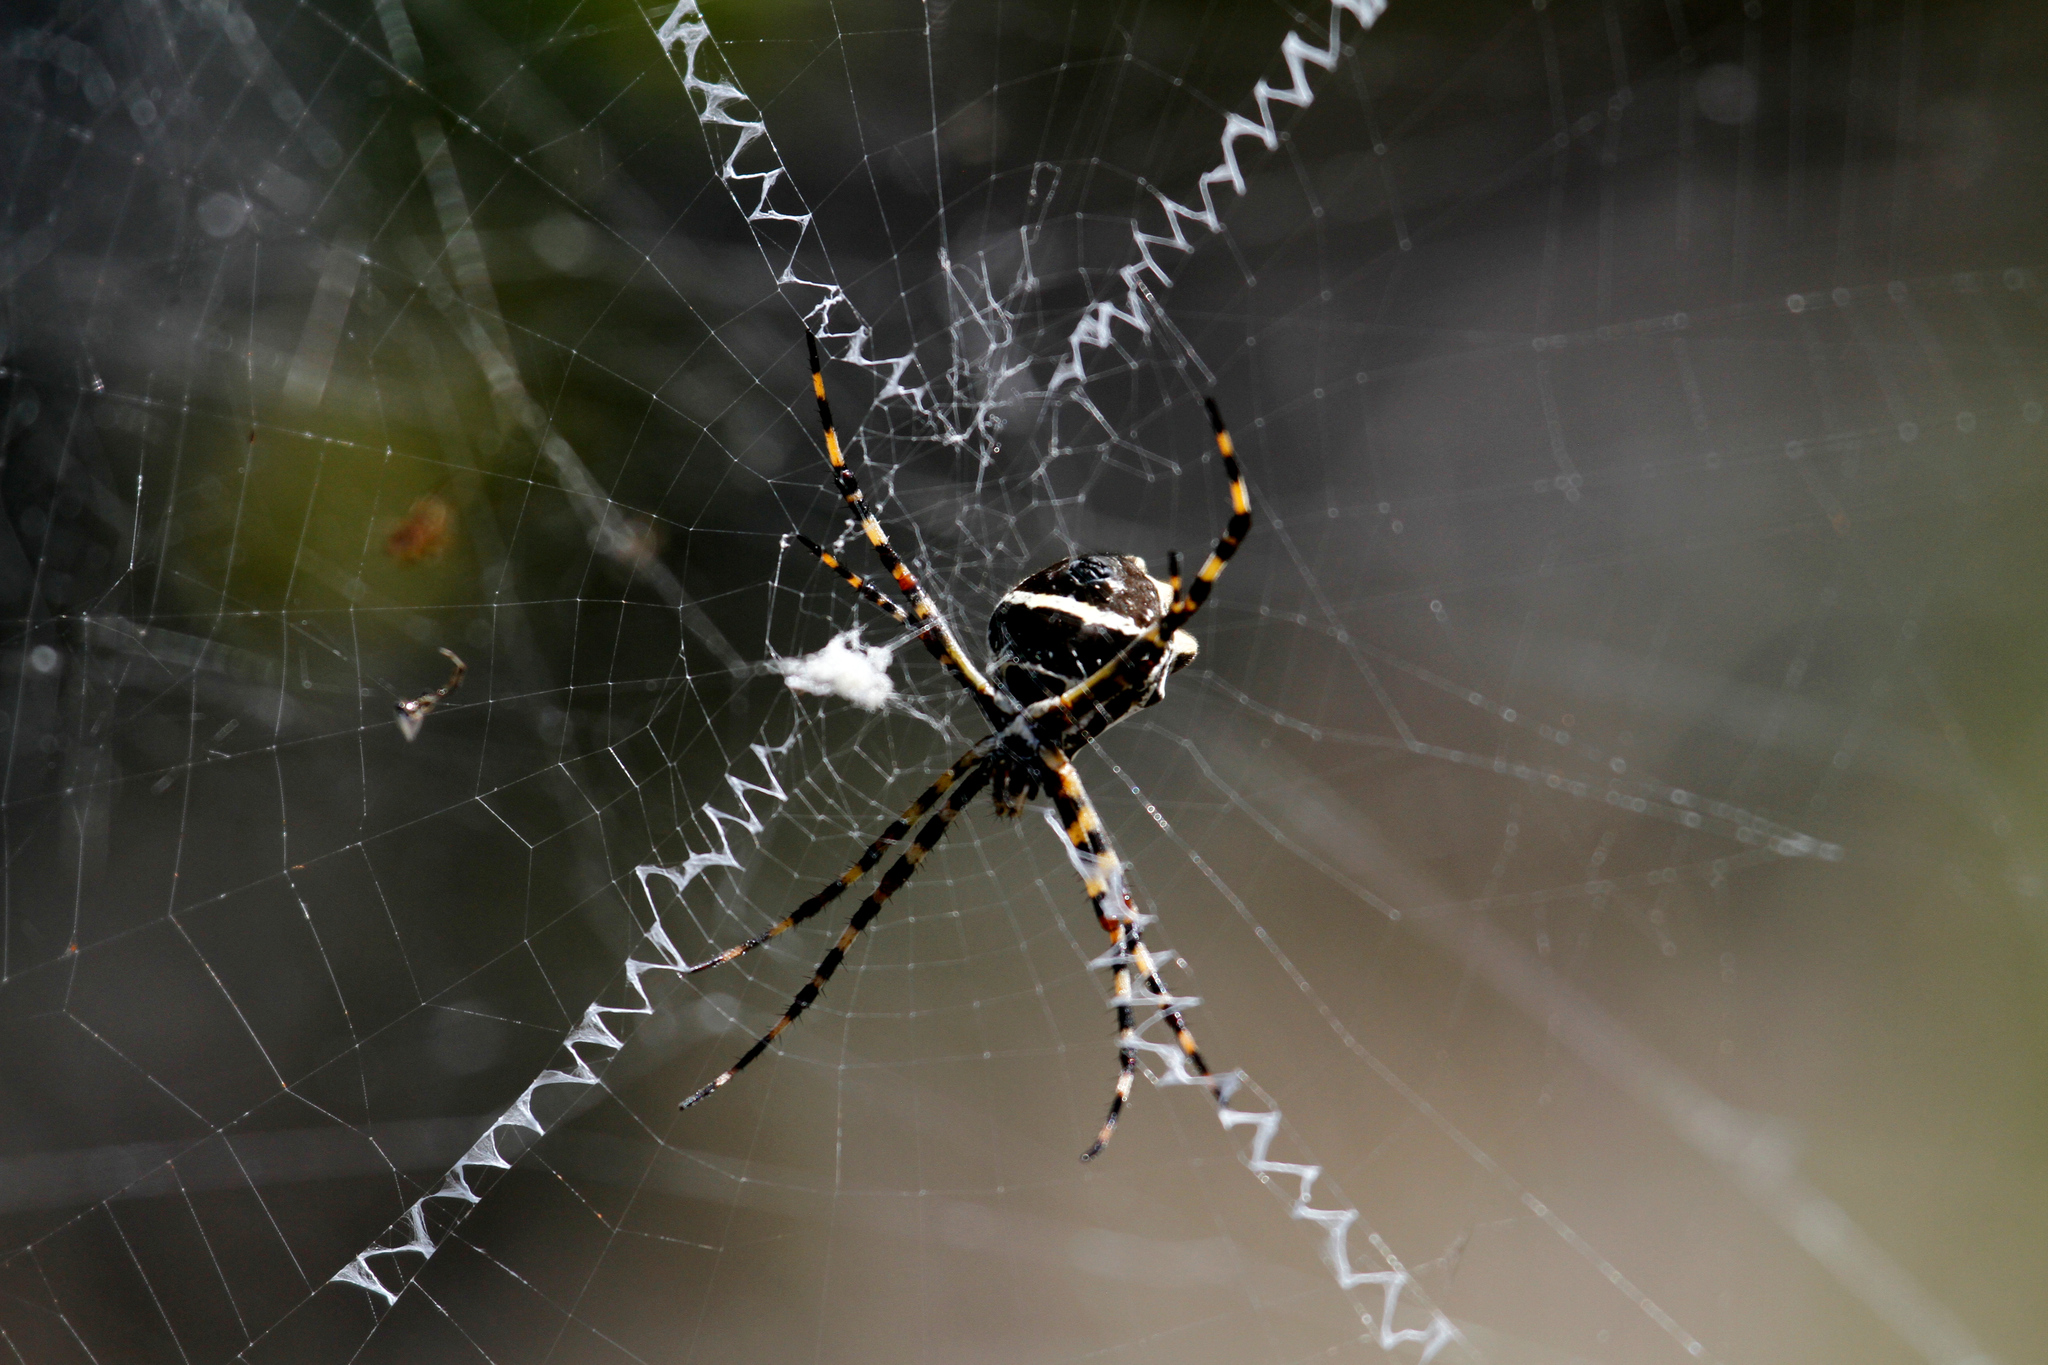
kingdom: Animalia
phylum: Arthropoda
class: Arachnida
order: Araneae
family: Araneidae
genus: Argiope
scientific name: Argiope argentata
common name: Orb weavers
